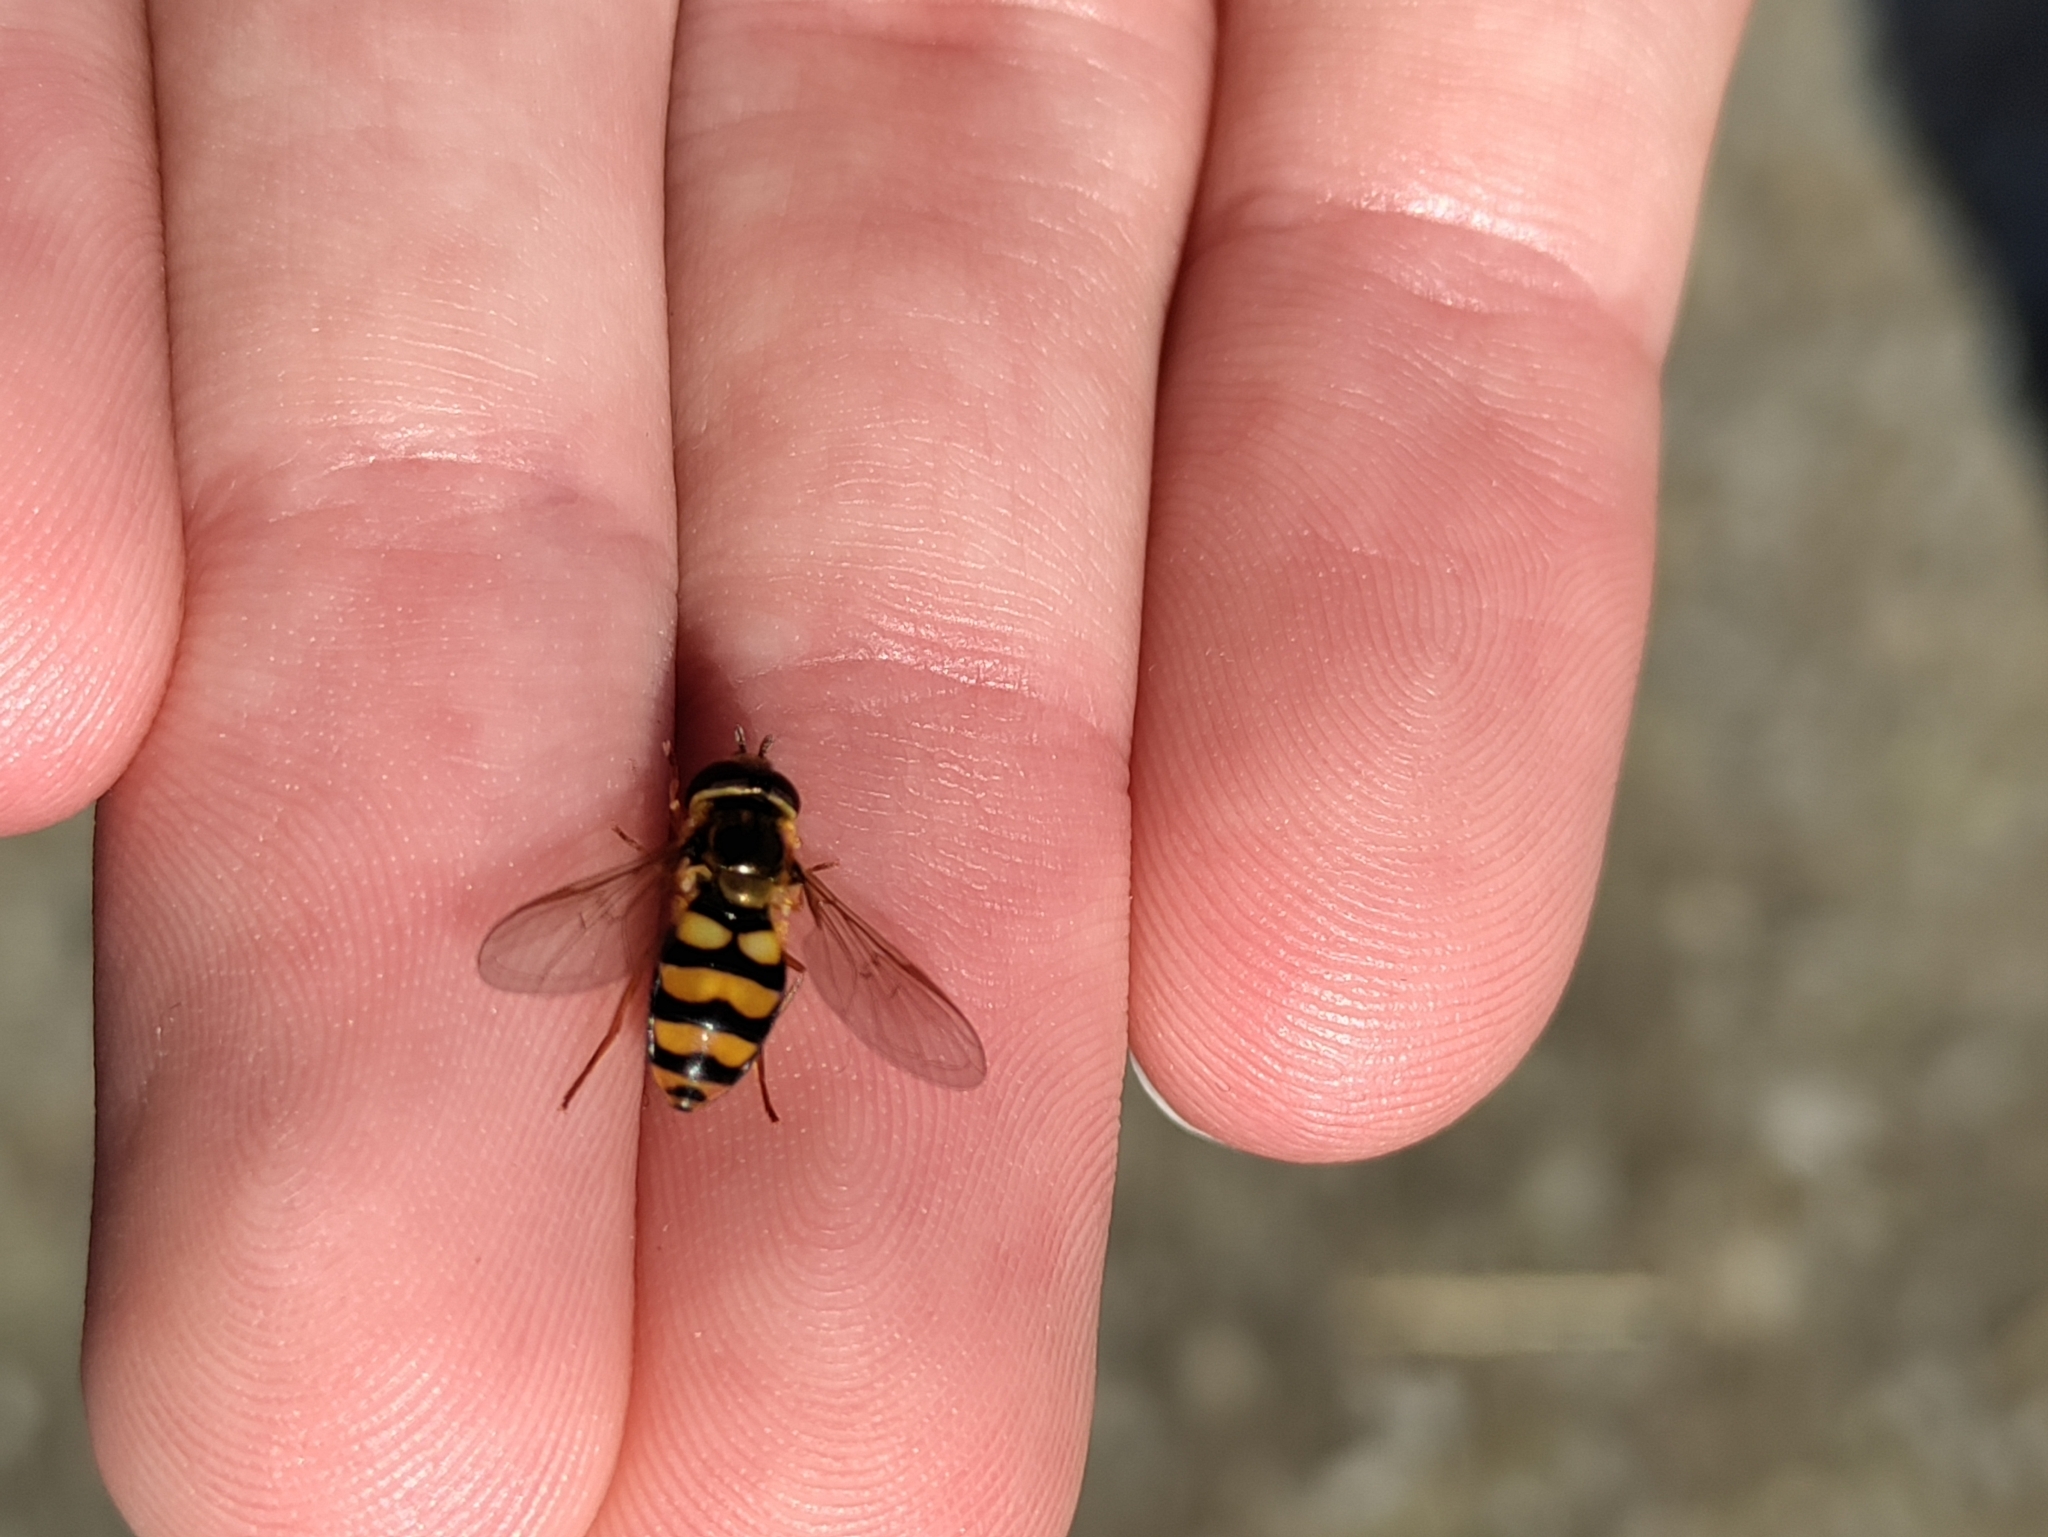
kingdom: Animalia
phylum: Arthropoda
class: Insecta
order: Diptera
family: Syrphidae
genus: Eupeodes
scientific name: Eupeodes latifasciatus
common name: Variable aphideater
